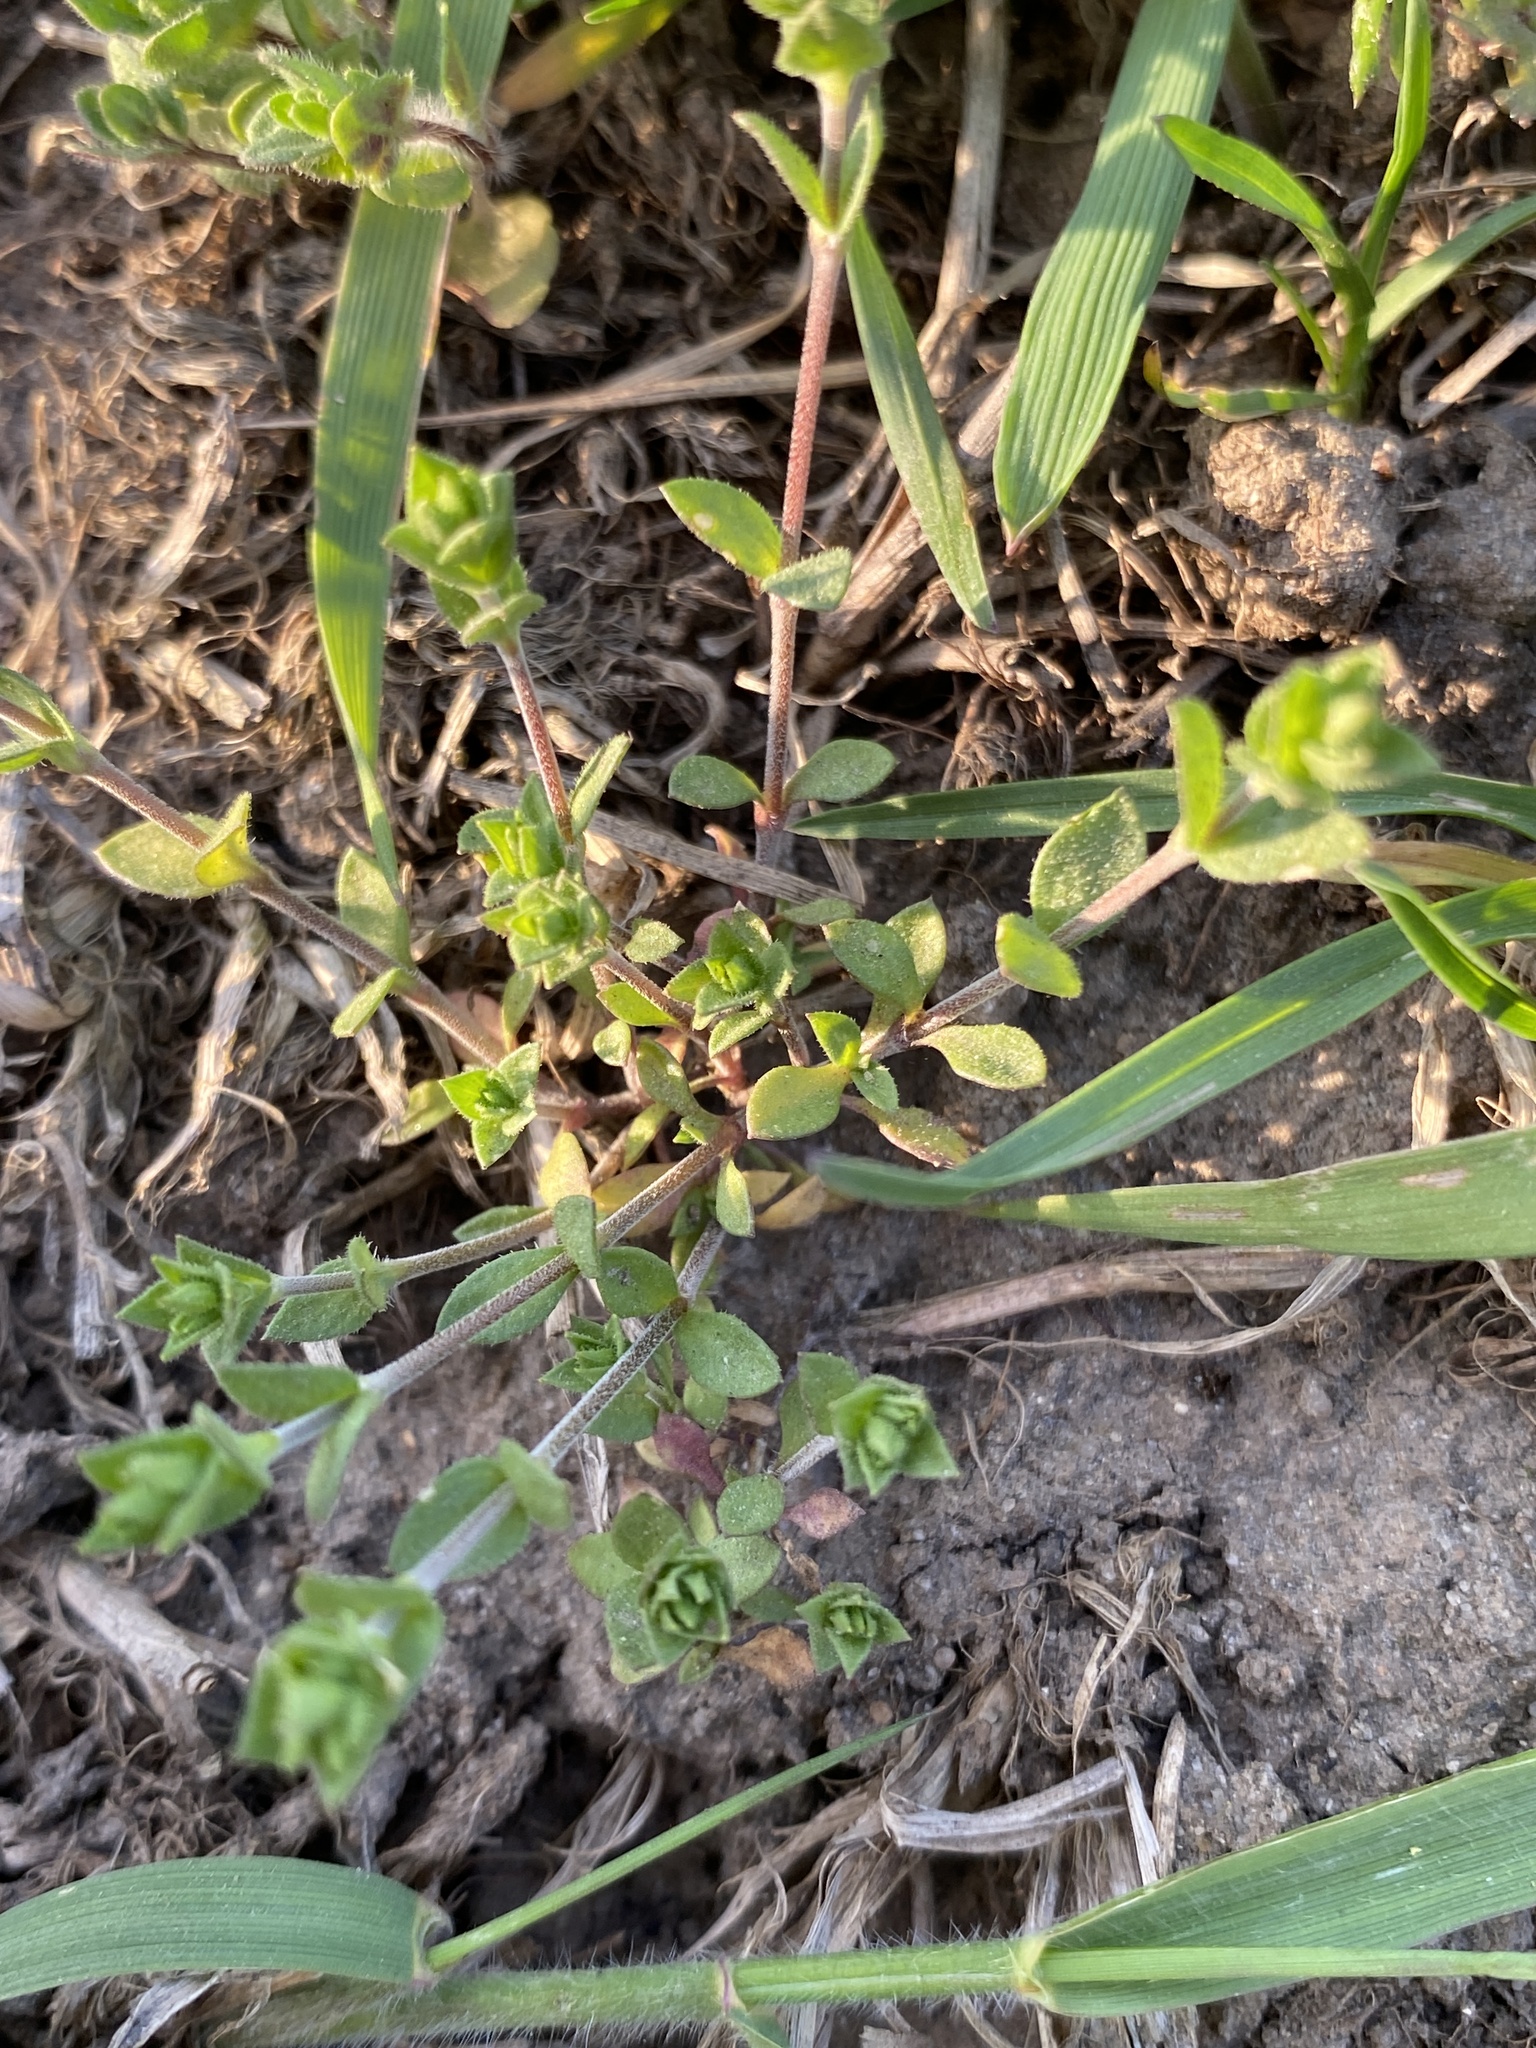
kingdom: Plantae
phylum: Tracheophyta
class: Magnoliopsida
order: Caryophyllales
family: Caryophyllaceae
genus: Arenaria
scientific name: Arenaria serpyllifolia
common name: Thyme-leaved sandwort
